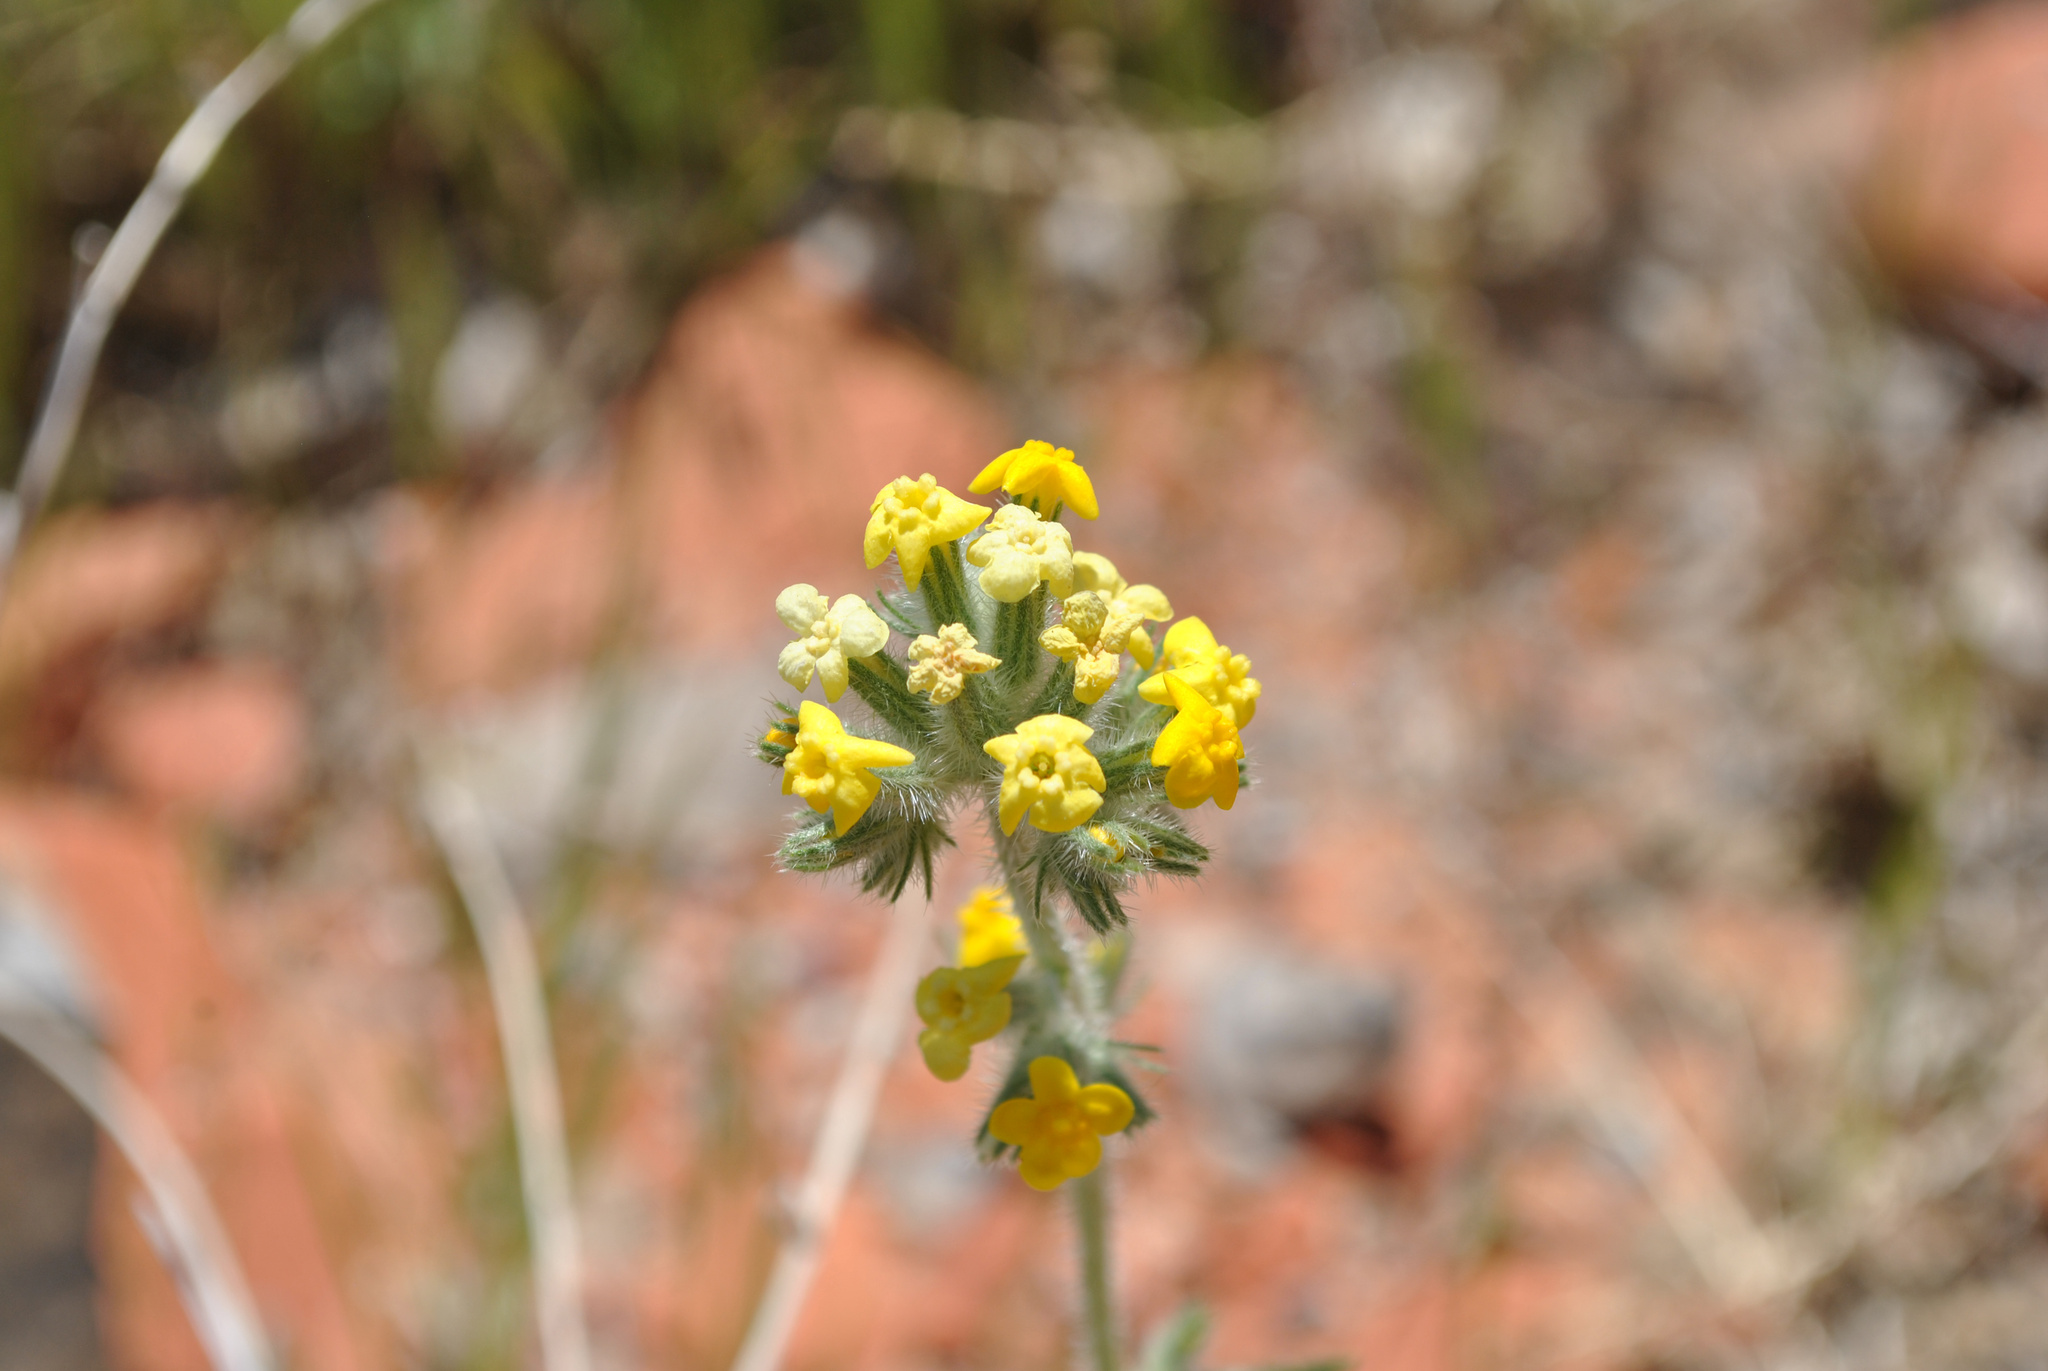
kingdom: Plantae
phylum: Tracheophyta
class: Magnoliopsida
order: Boraginales
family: Boraginaceae
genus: Oreocarya
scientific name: Oreocarya confertiflora
